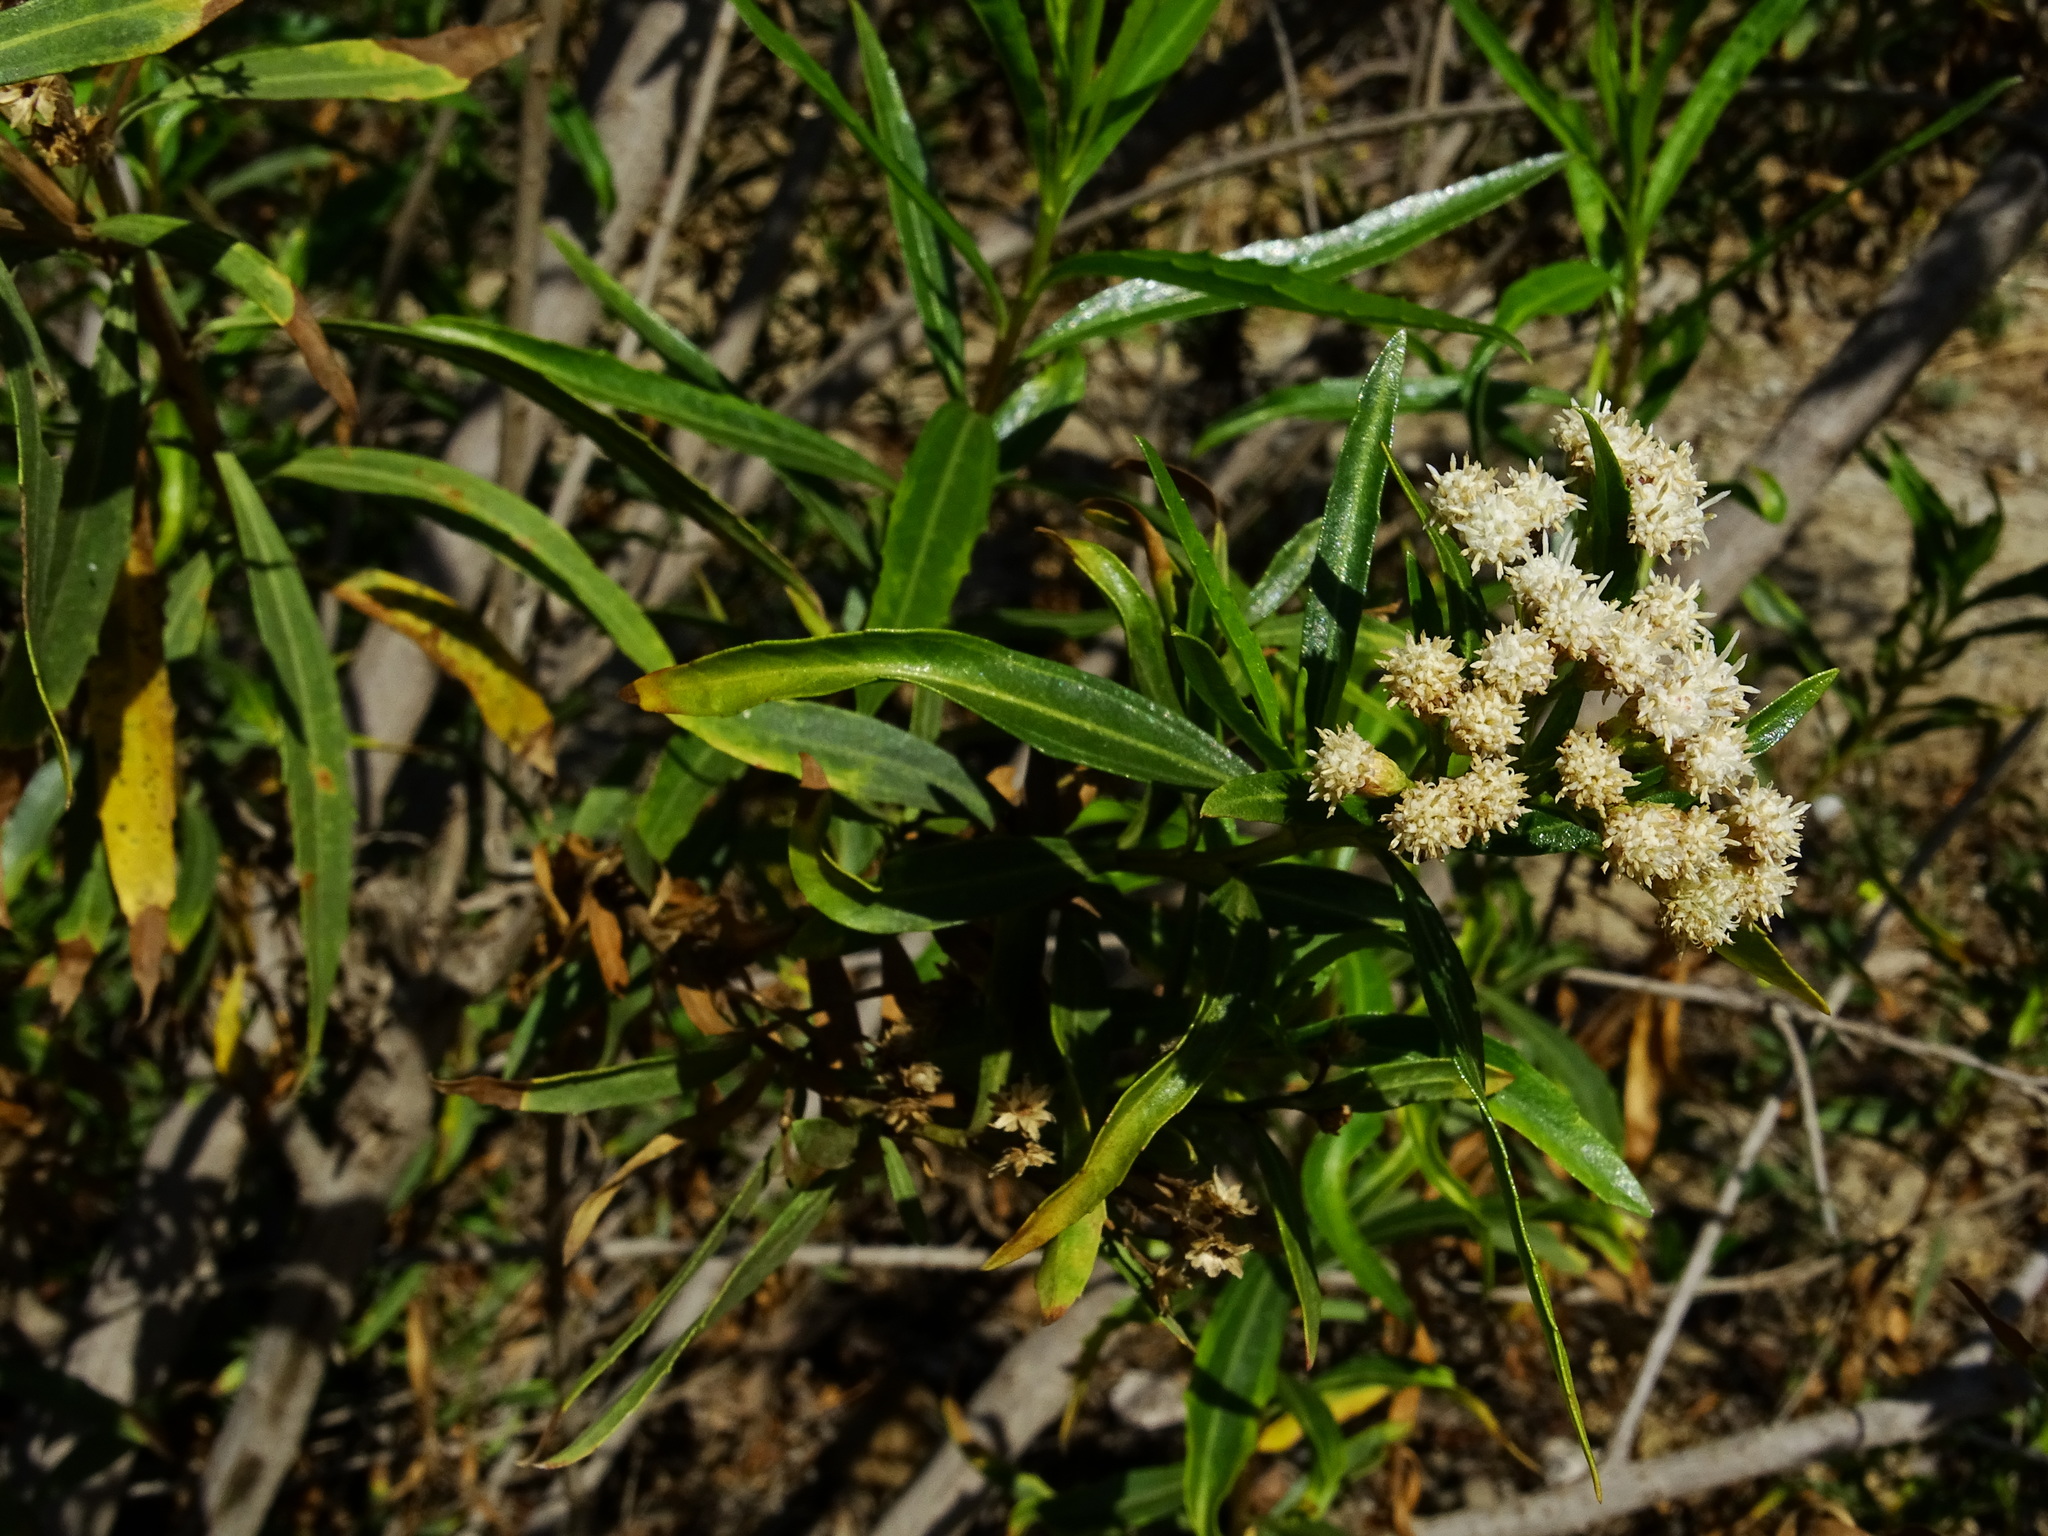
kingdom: Plantae
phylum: Tracheophyta
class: Magnoliopsida
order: Asterales
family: Asteraceae
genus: Baccharis
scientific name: Baccharis salicifolia
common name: Sticky baccharis
